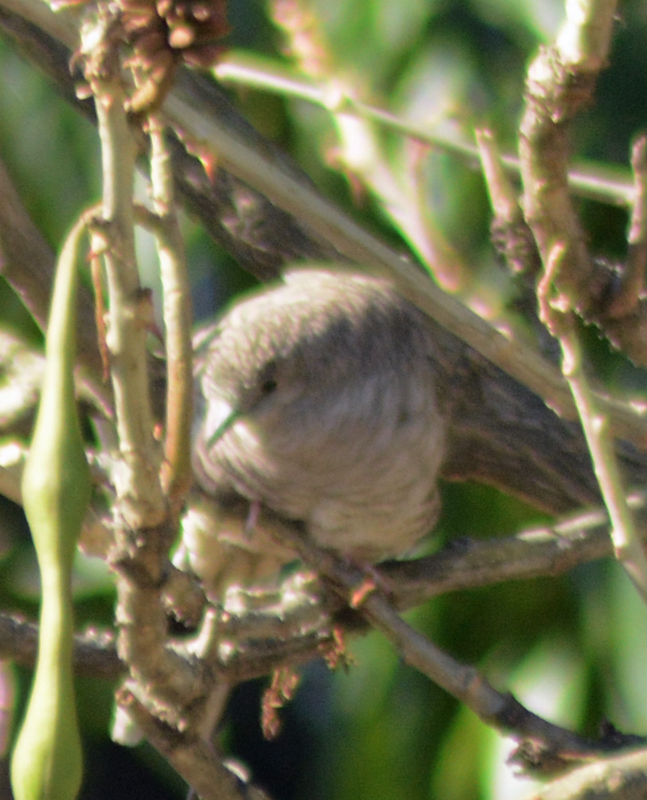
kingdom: Animalia
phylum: Chordata
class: Aves
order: Columbiformes
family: Columbidae
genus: Columbina
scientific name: Columbina inca
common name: Inca dove
